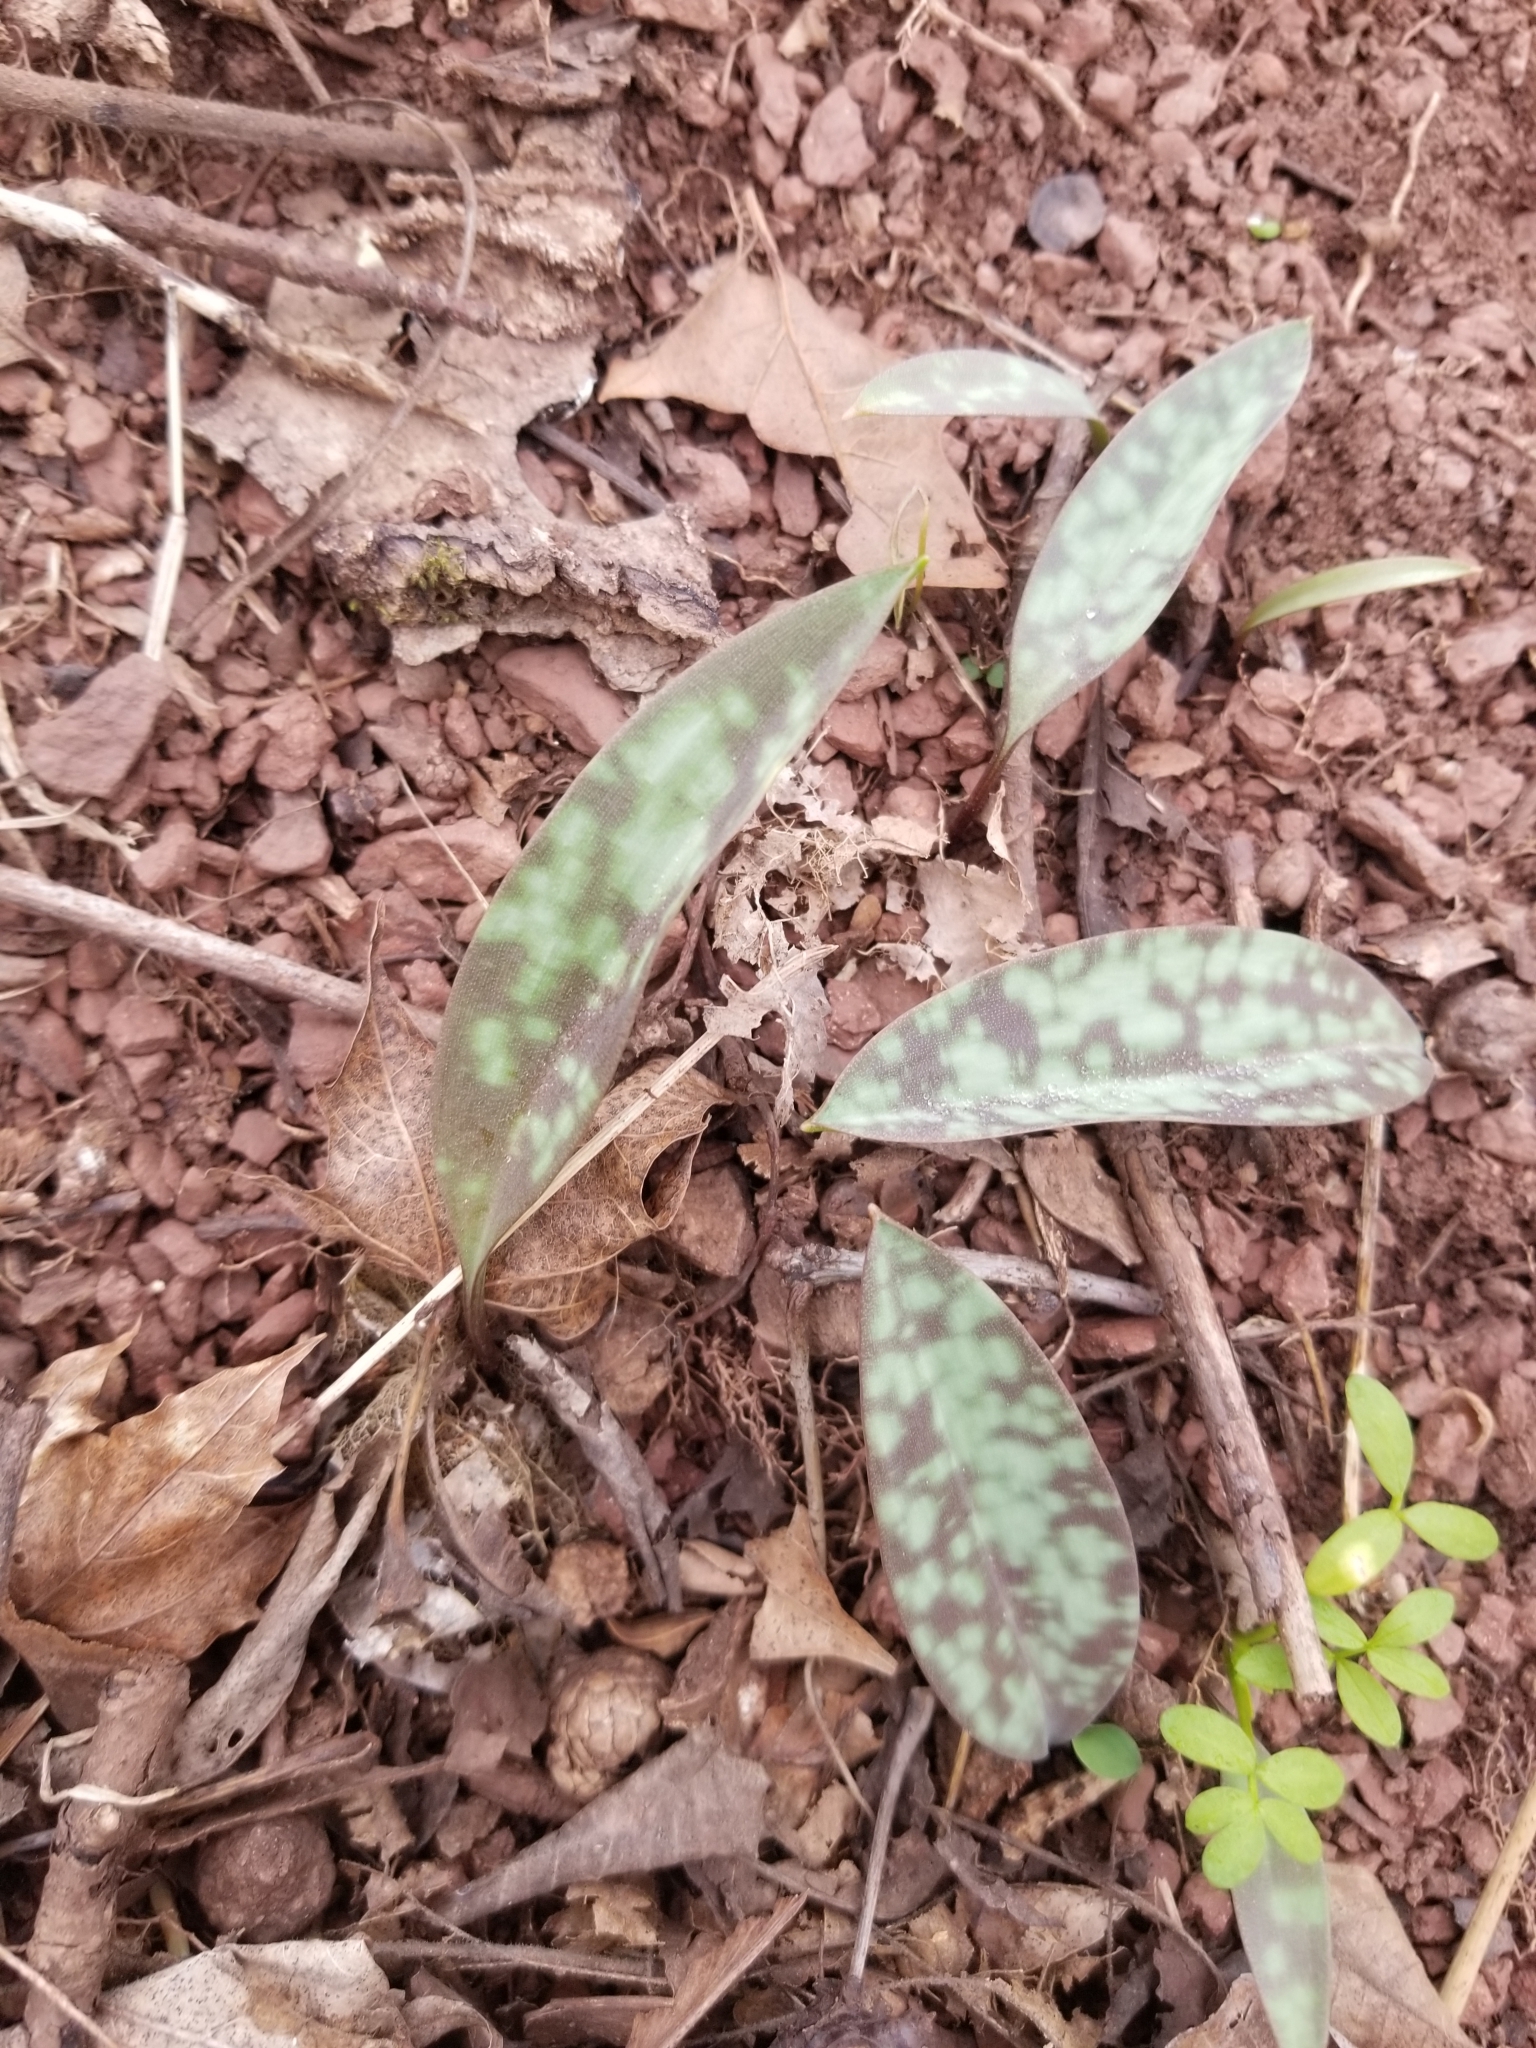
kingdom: Plantae
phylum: Tracheophyta
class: Liliopsida
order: Liliales
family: Liliaceae
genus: Erythronium
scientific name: Erythronium americanum
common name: Yellow adder's-tongue
